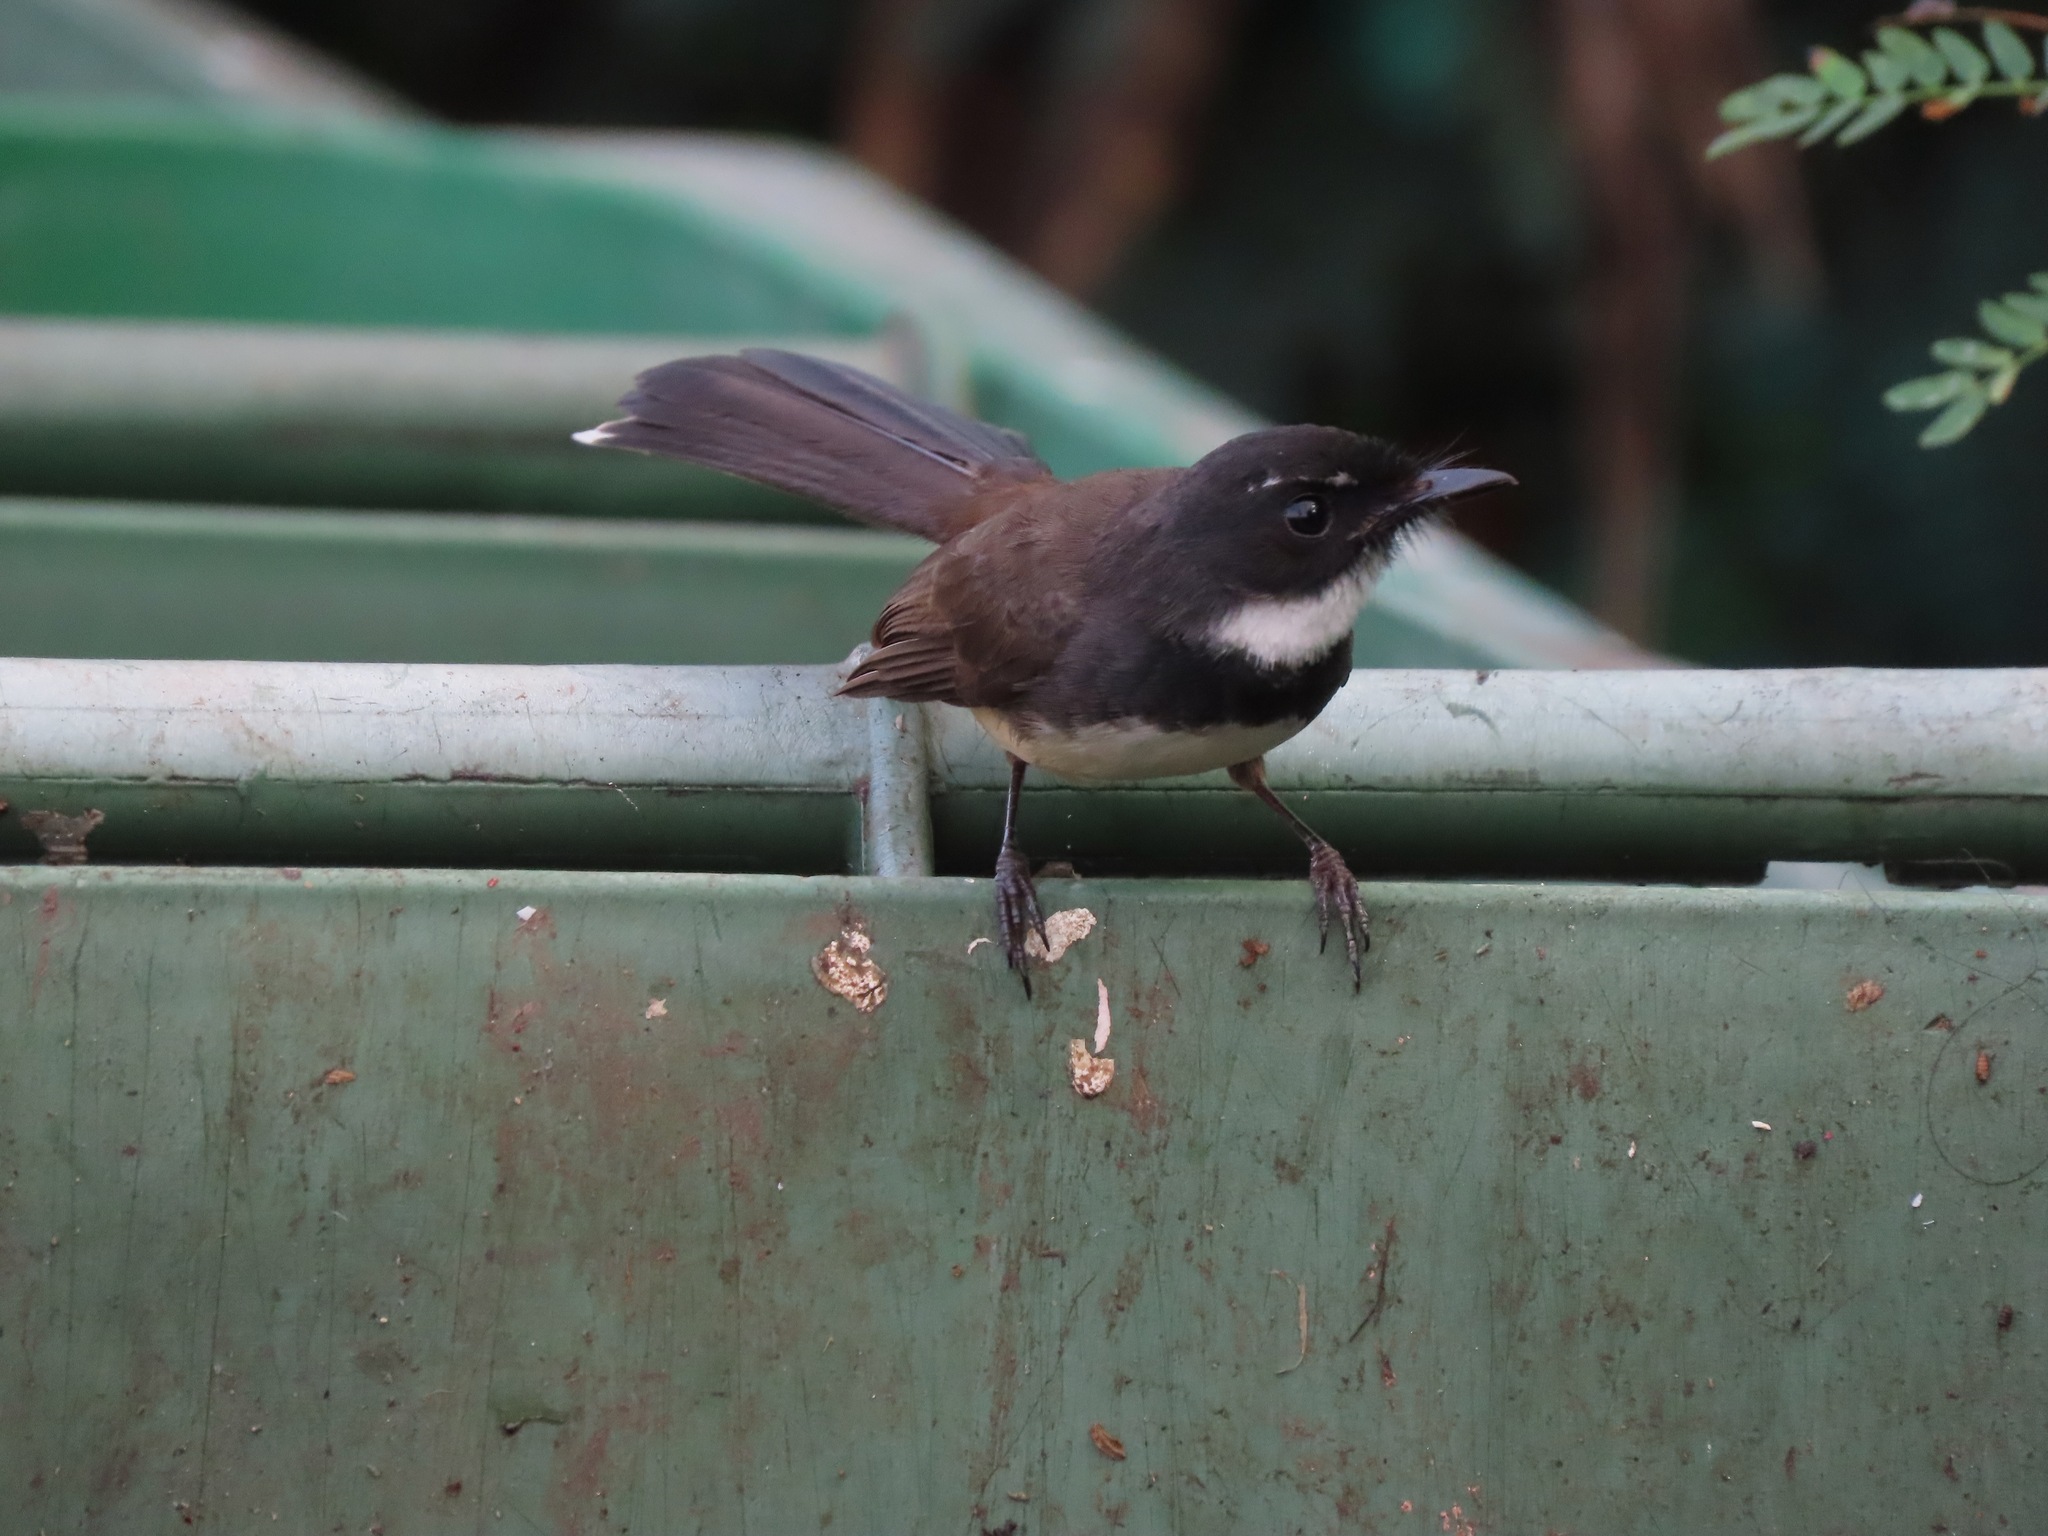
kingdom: Animalia
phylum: Chordata
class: Aves
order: Passeriformes
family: Rhipiduridae
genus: Rhipidura
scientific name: Rhipidura javanica
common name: Pied fantail
